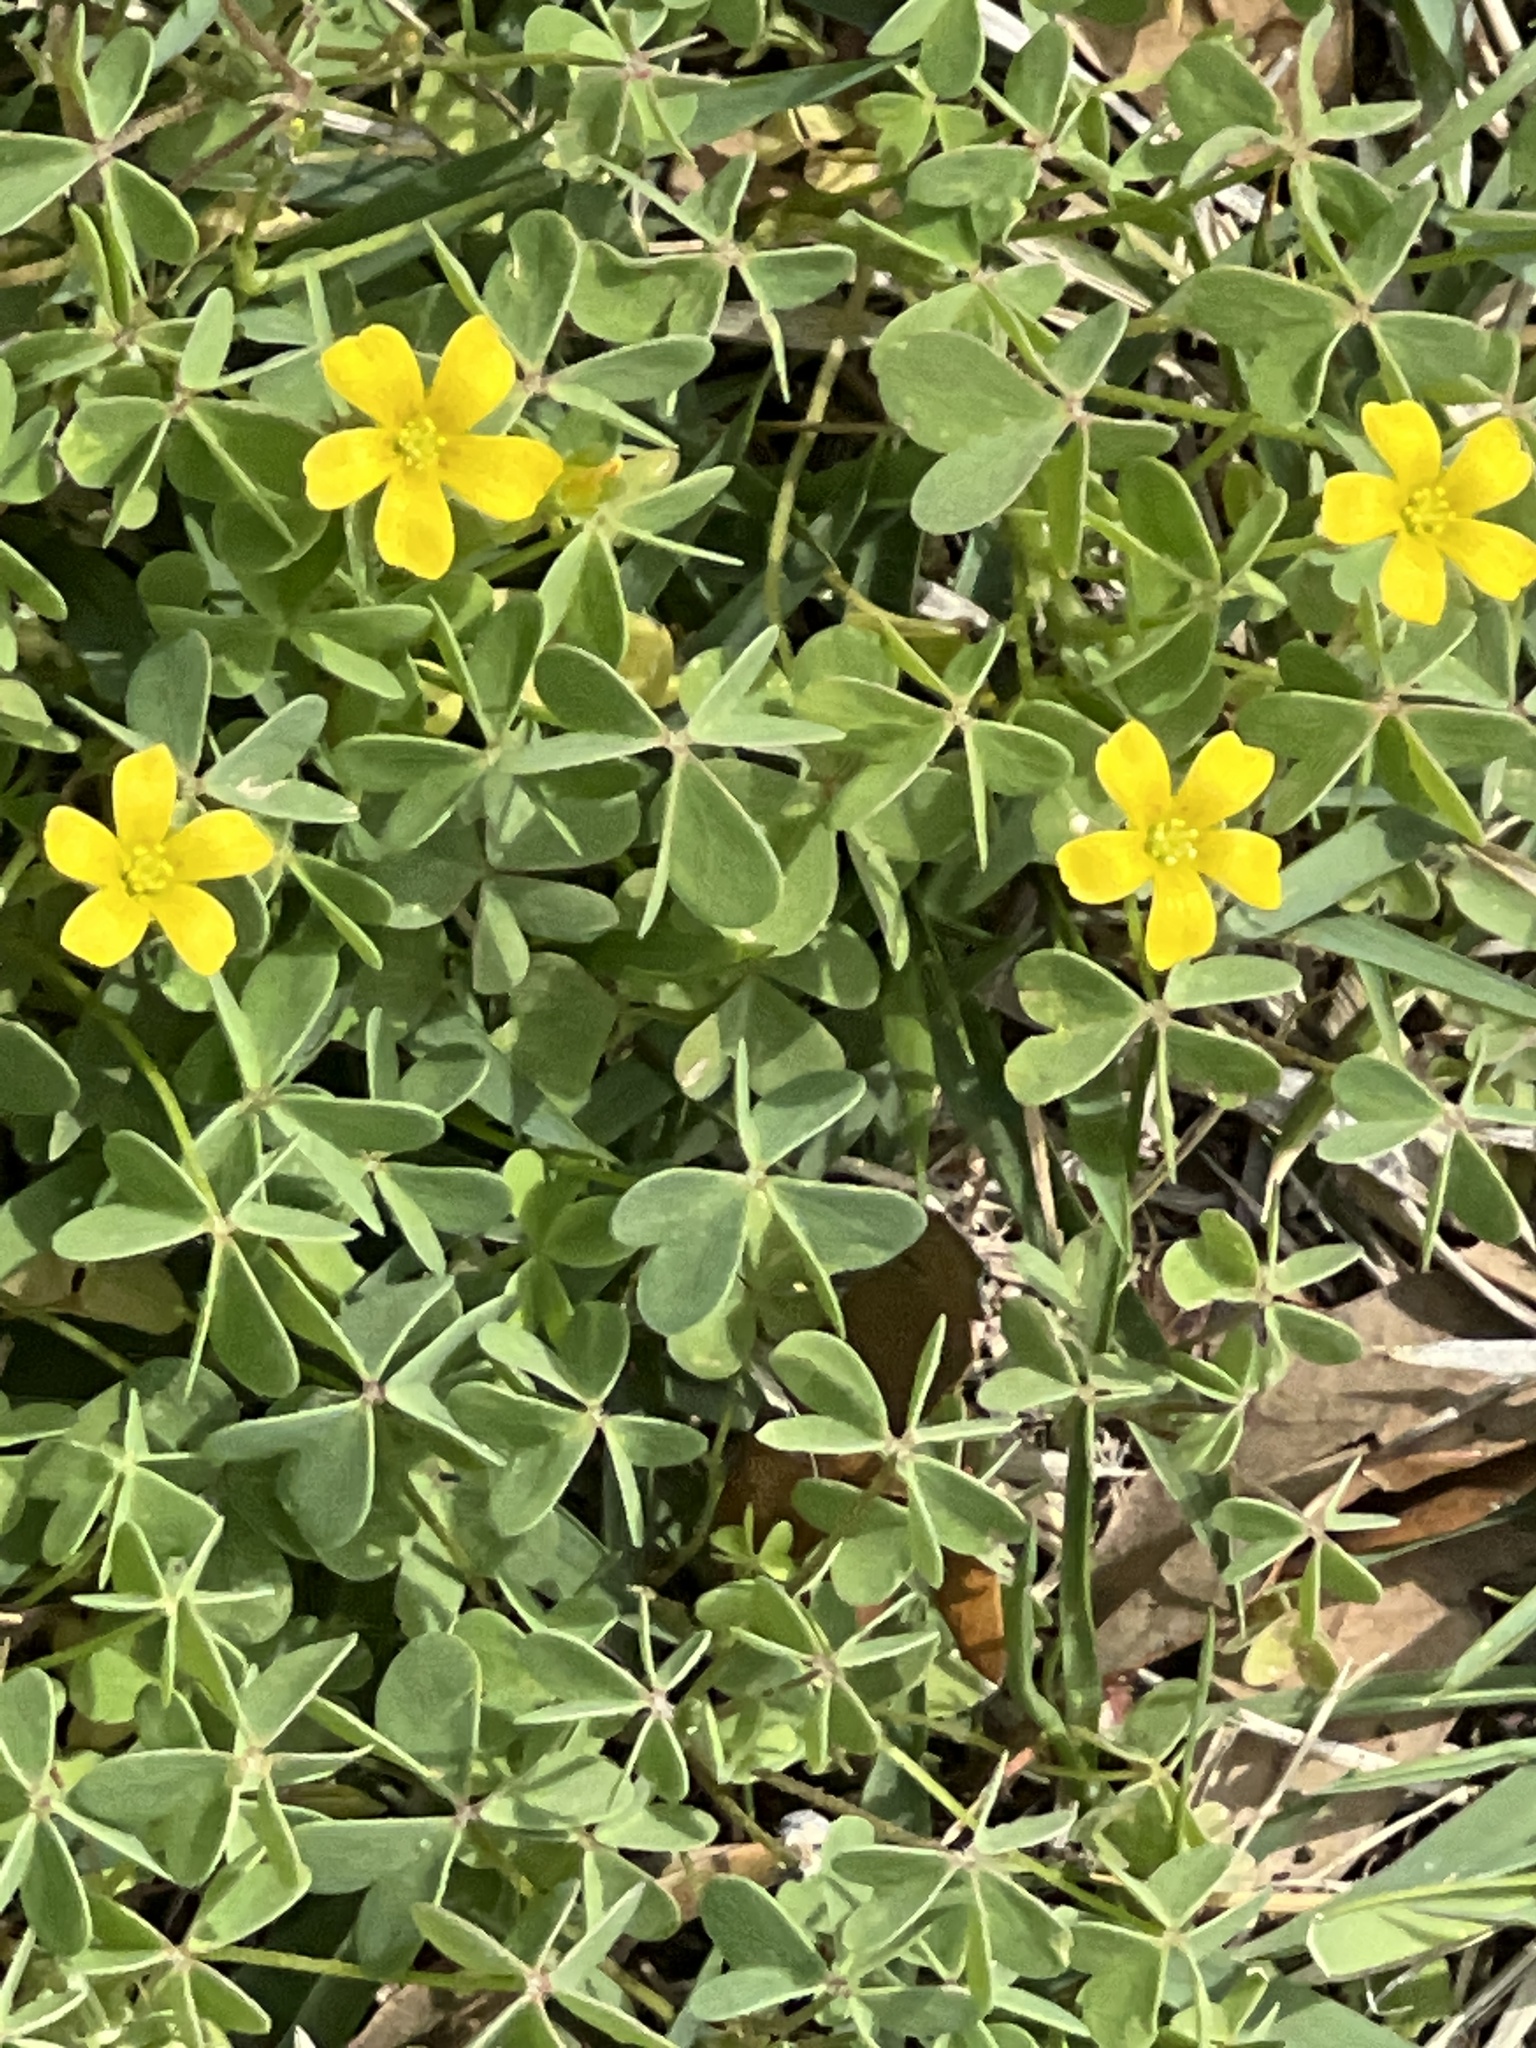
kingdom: Plantae
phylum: Tracheophyta
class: Magnoliopsida
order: Oxalidales
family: Oxalidaceae
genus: Oxalis
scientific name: Oxalis dillenii
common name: Sussex yellow-sorrel
